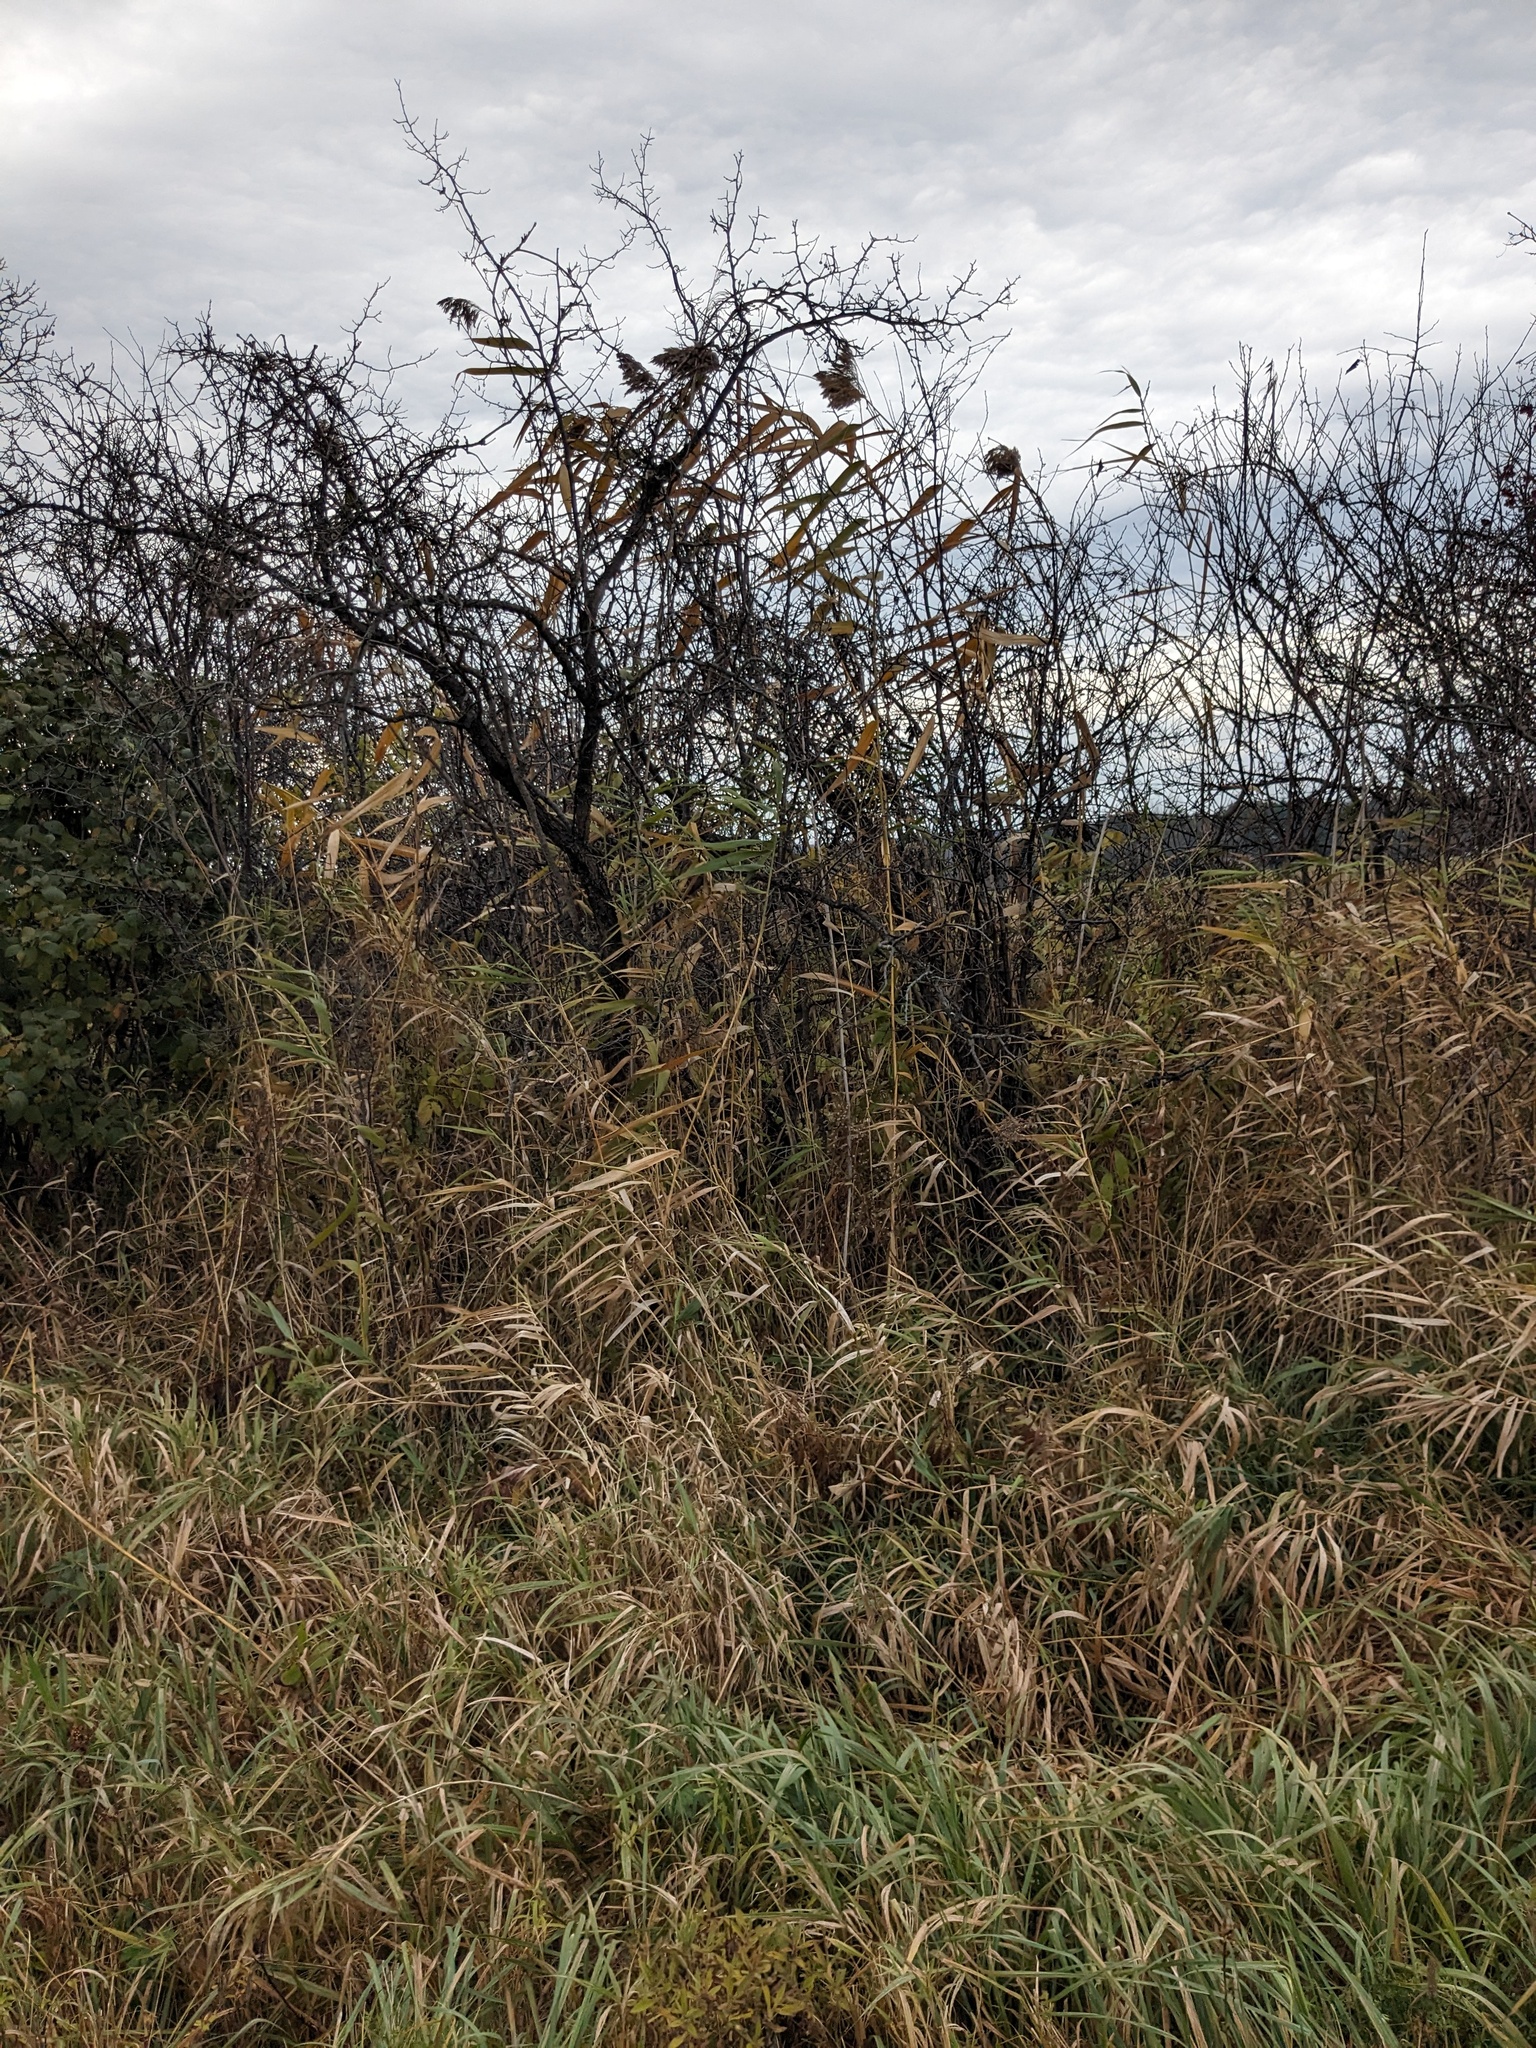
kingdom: Plantae
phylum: Tracheophyta
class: Liliopsida
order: Poales
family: Poaceae
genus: Phragmites
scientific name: Phragmites australis
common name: Common reed
